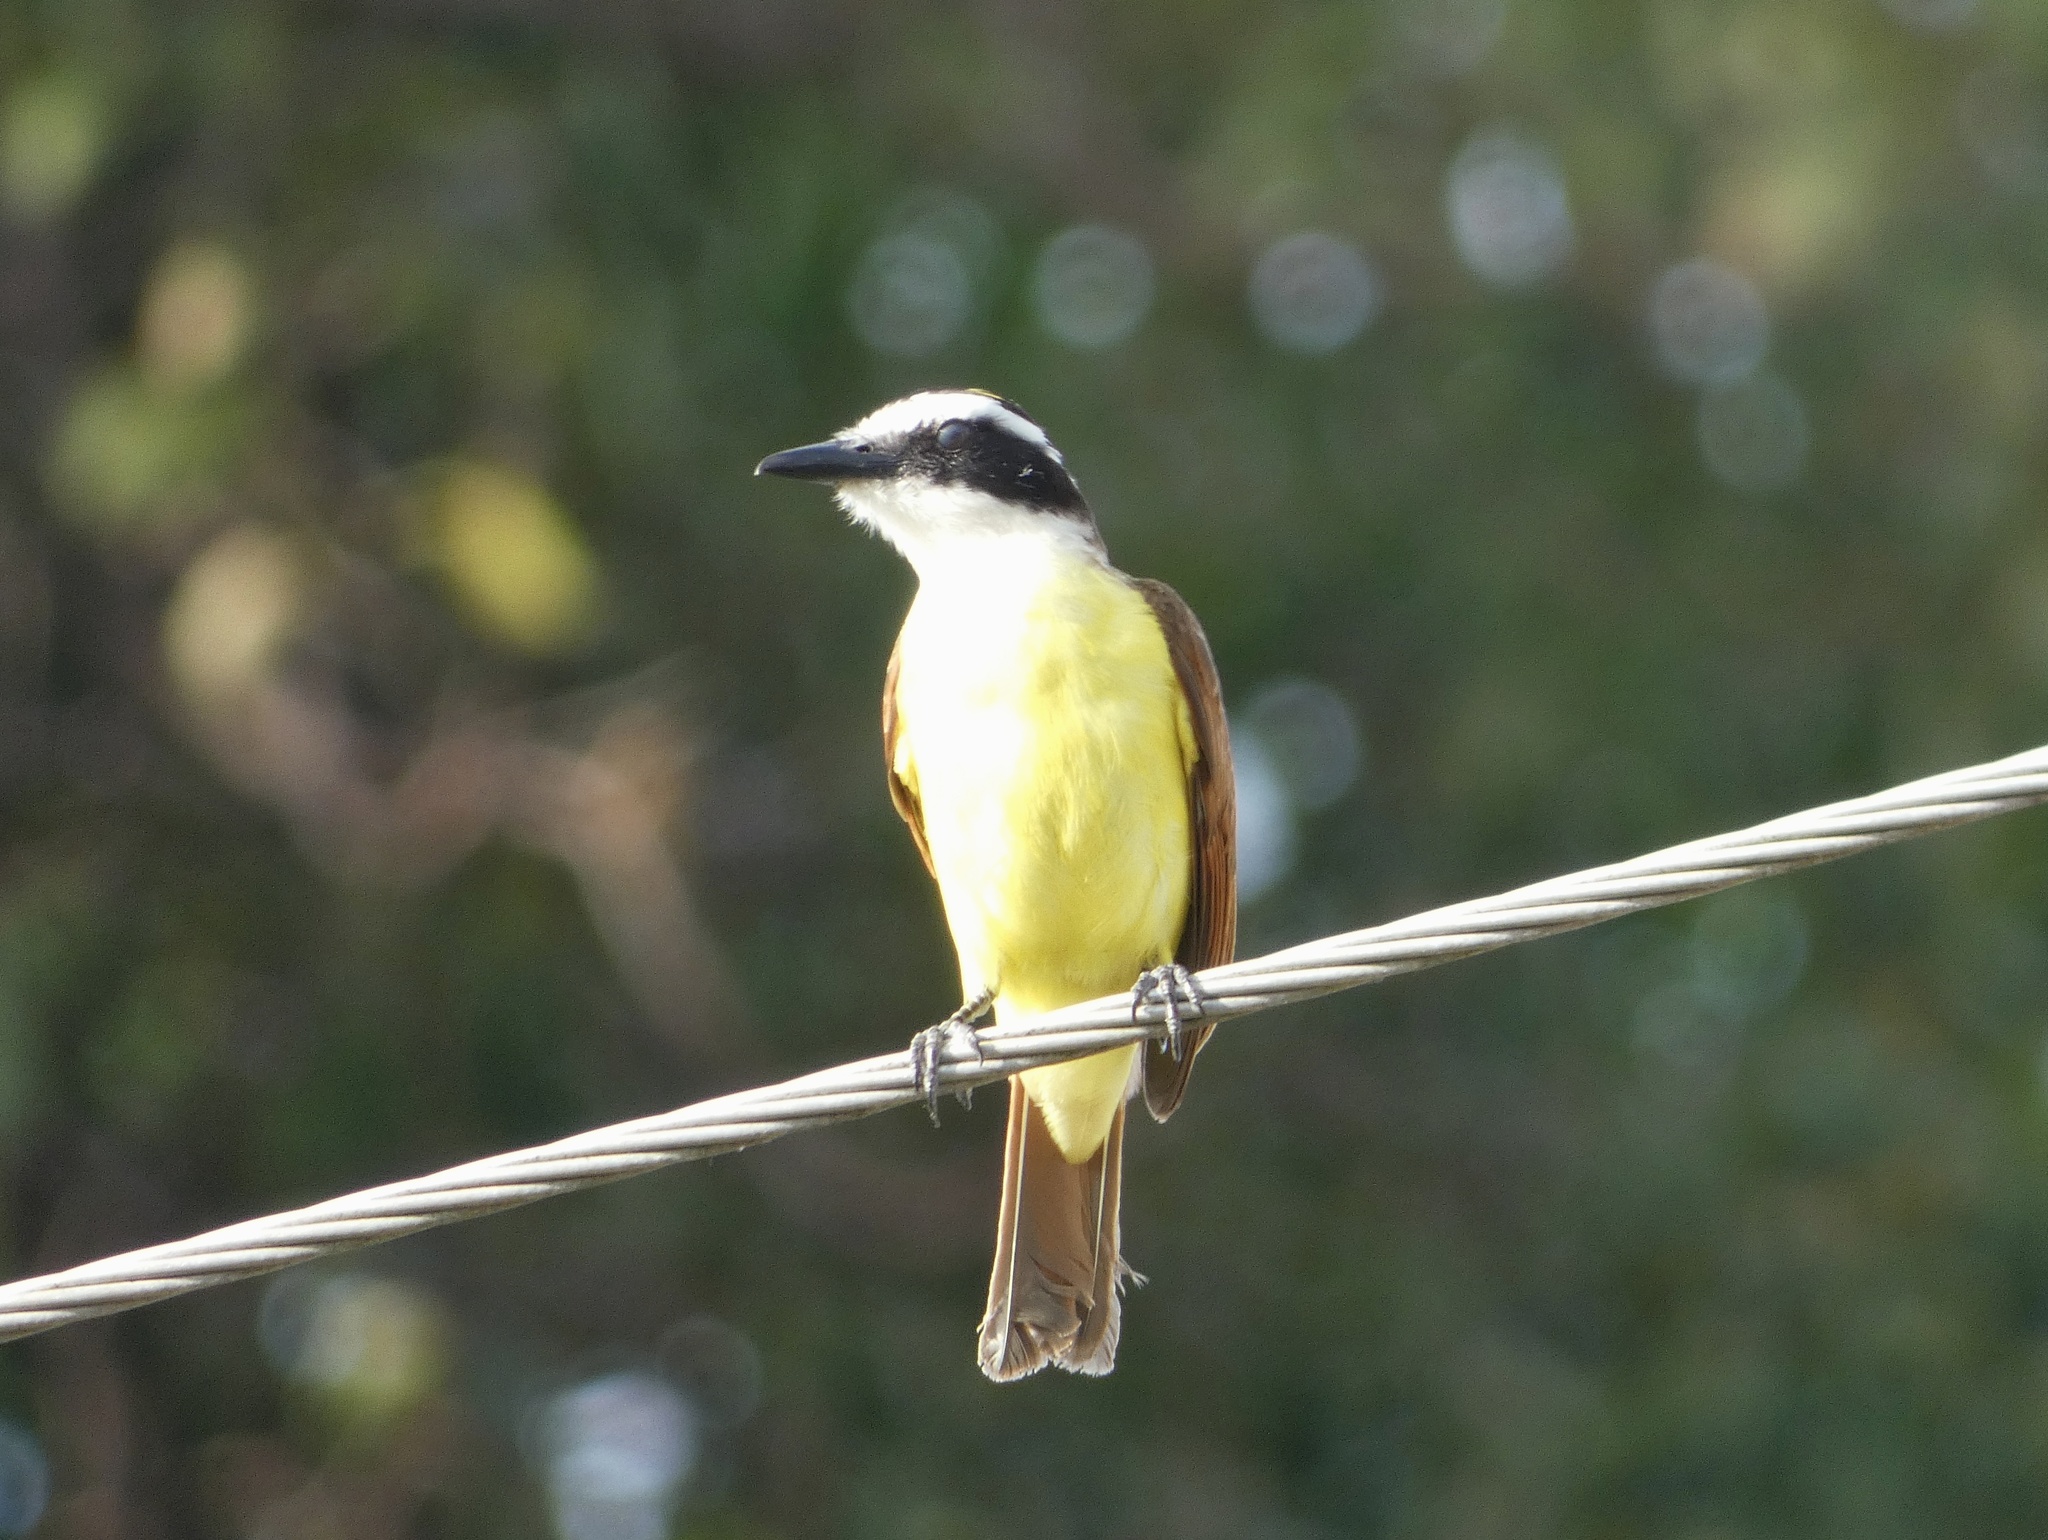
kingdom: Animalia
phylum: Chordata
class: Aves
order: Passeriformes
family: Tyrannidae
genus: Pitangus
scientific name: Pitangus sulphuratus
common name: Great kiskadee
